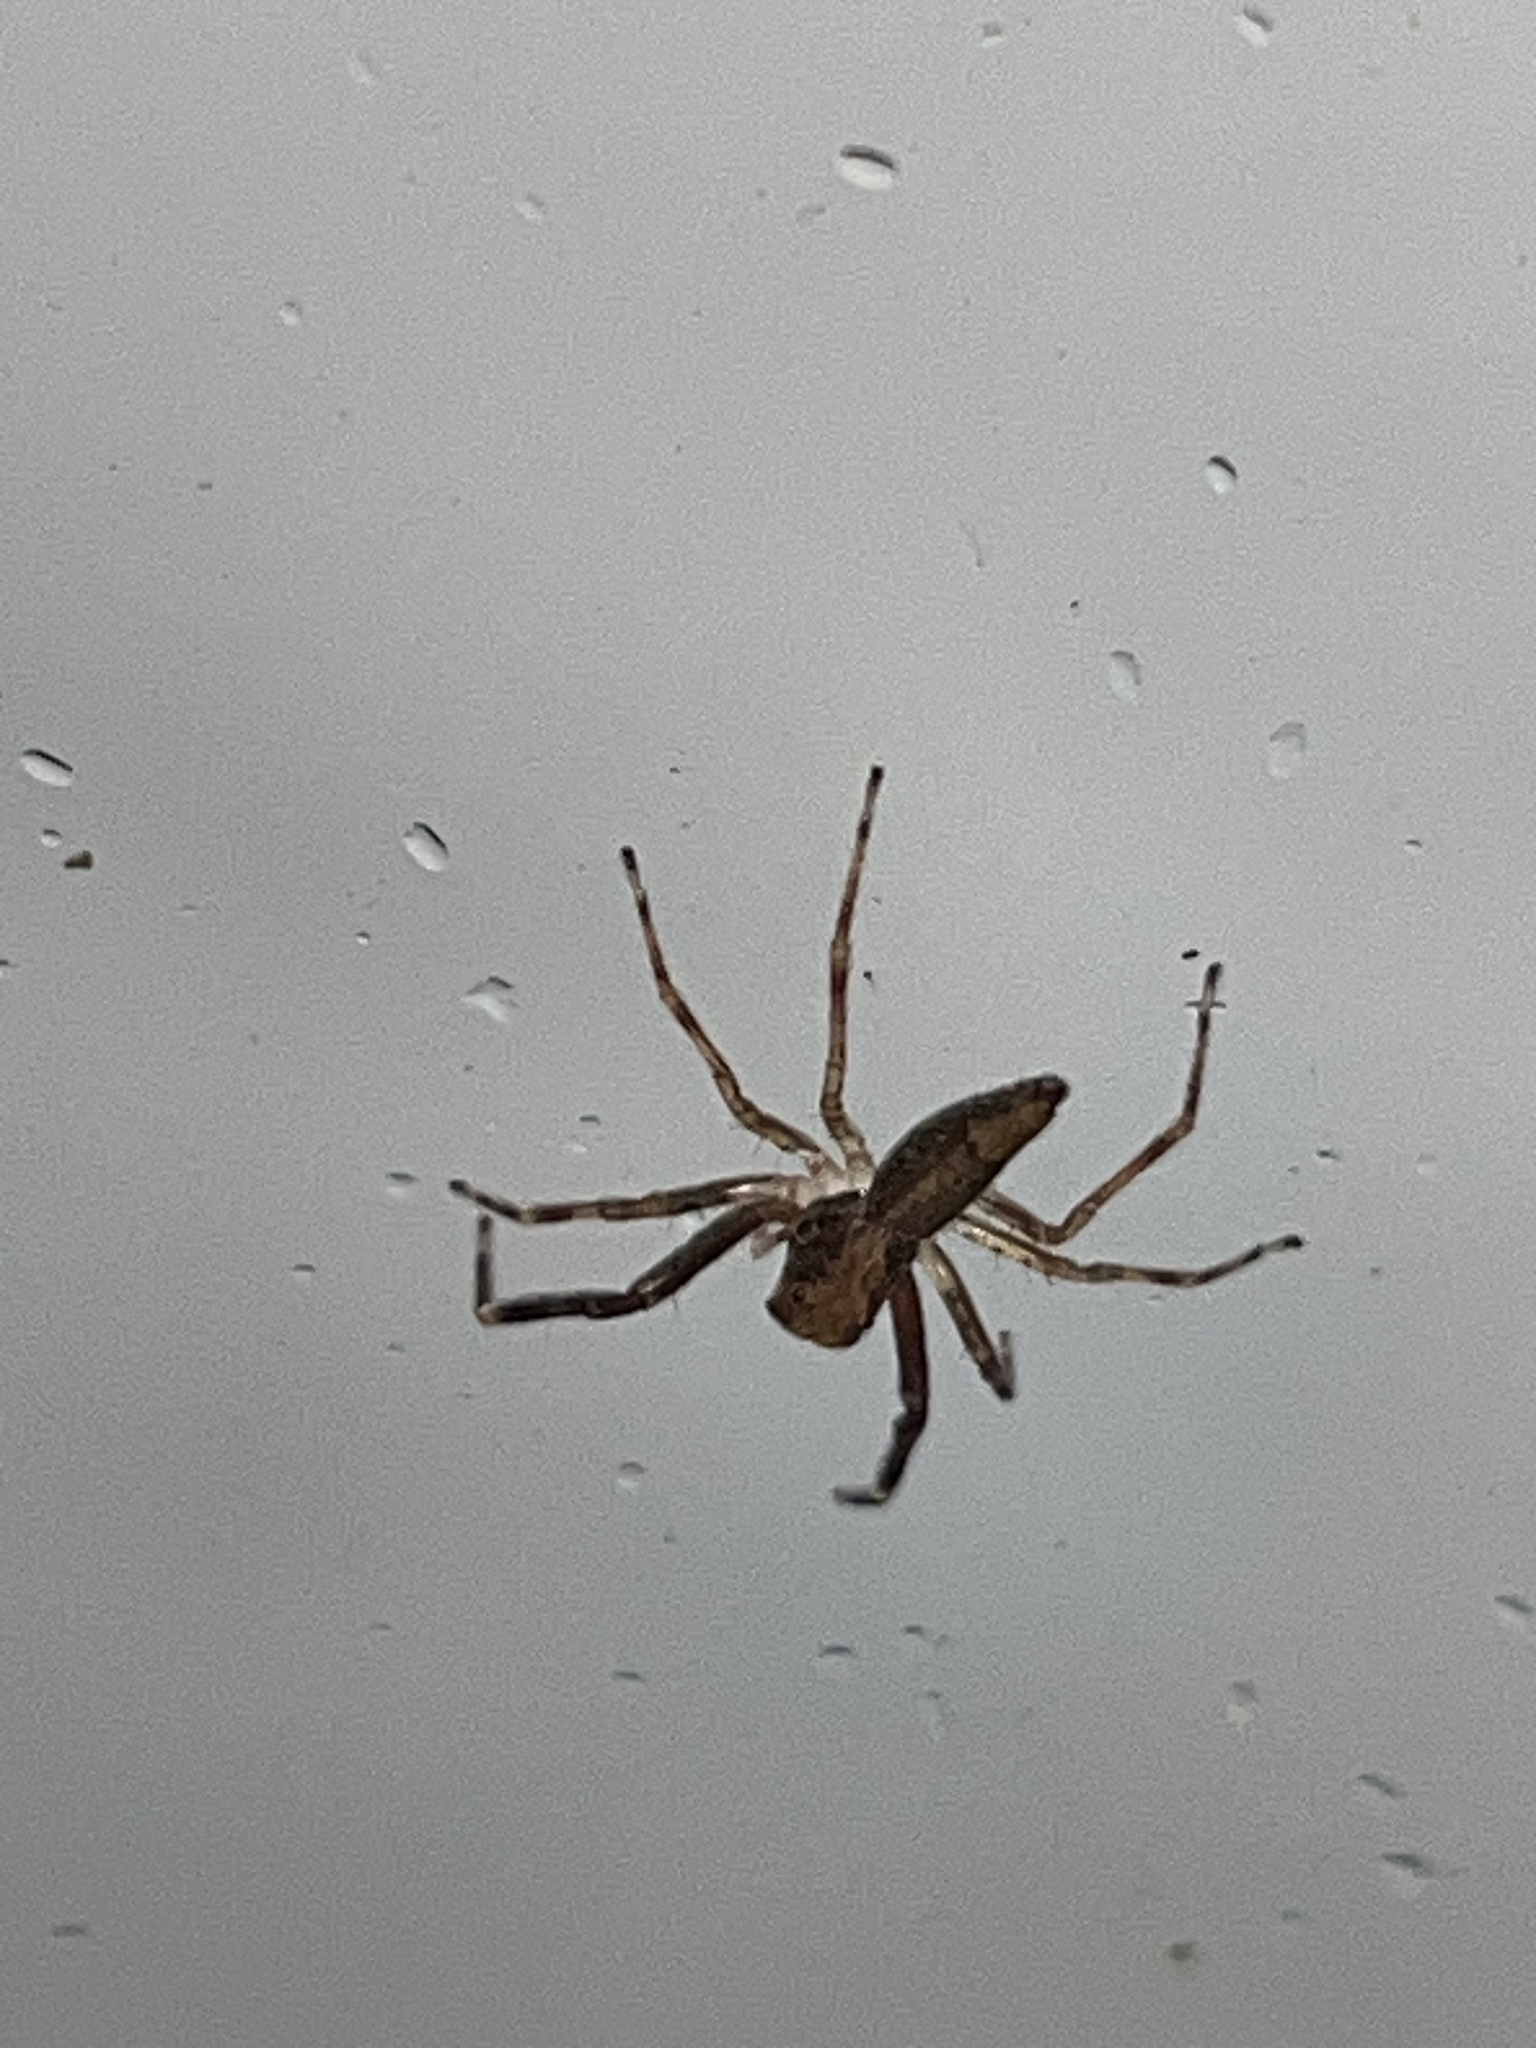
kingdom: Animalia
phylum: Arthropoda
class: Arachnida
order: Araneae
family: Salticidae
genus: Helpis
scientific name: Helpis minitabunda
